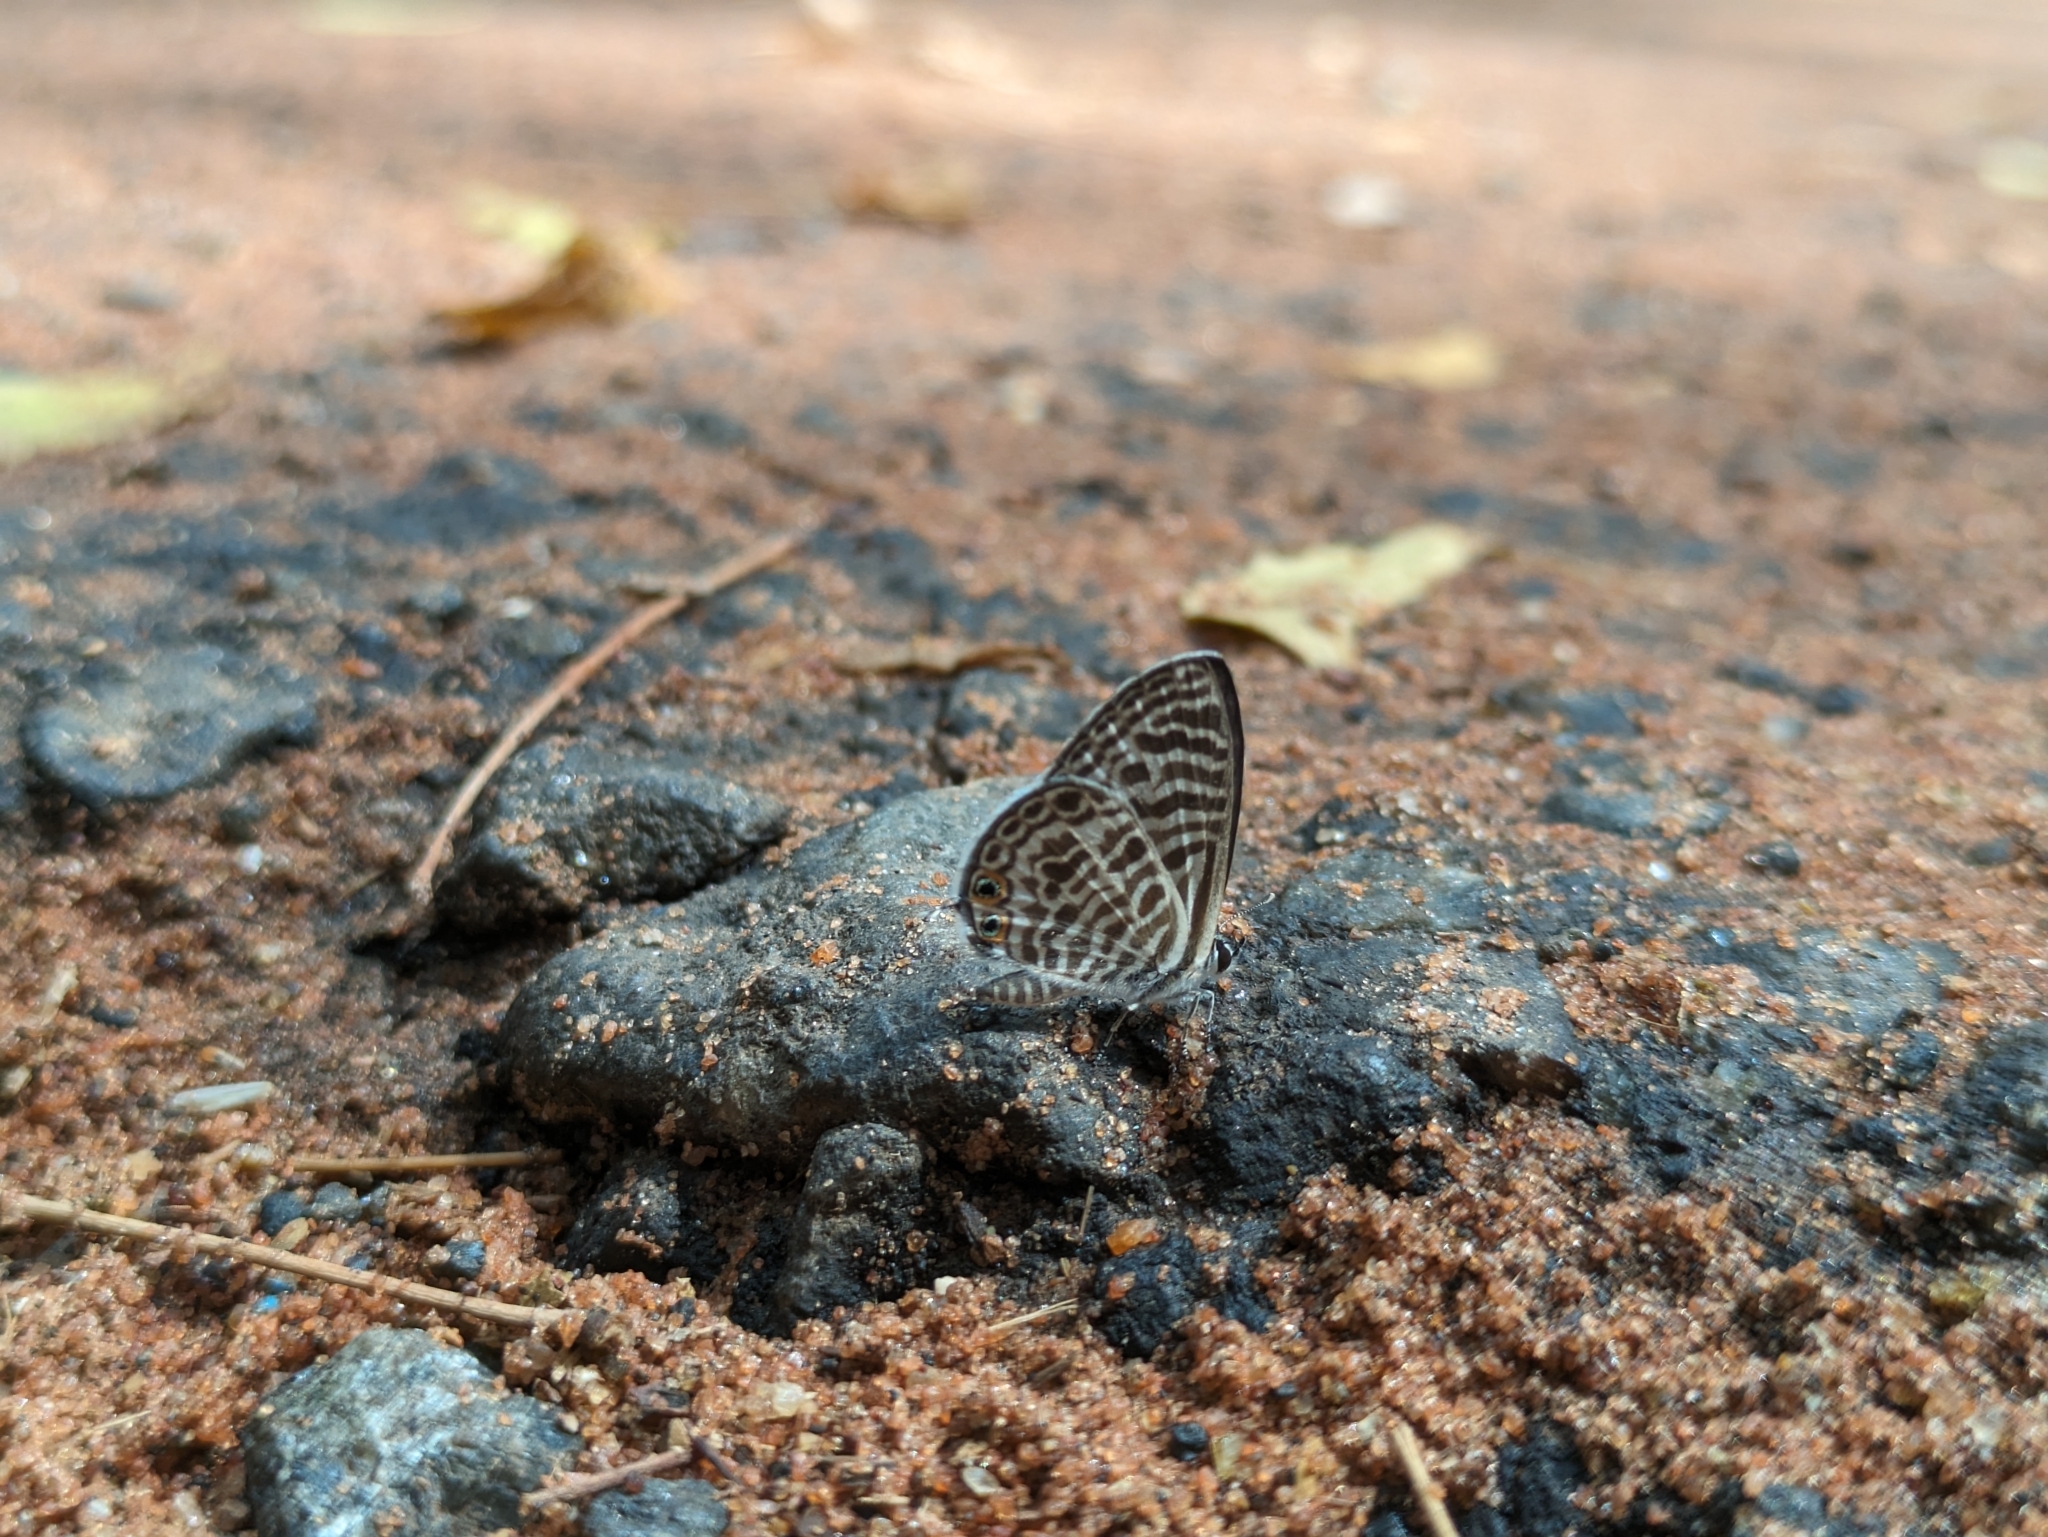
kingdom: Animalia
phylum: Arthropoda
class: Insecta
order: Lepidoptera
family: Lycaenidae
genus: Leptotes
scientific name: Leptotes plinius
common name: Zebra blue
